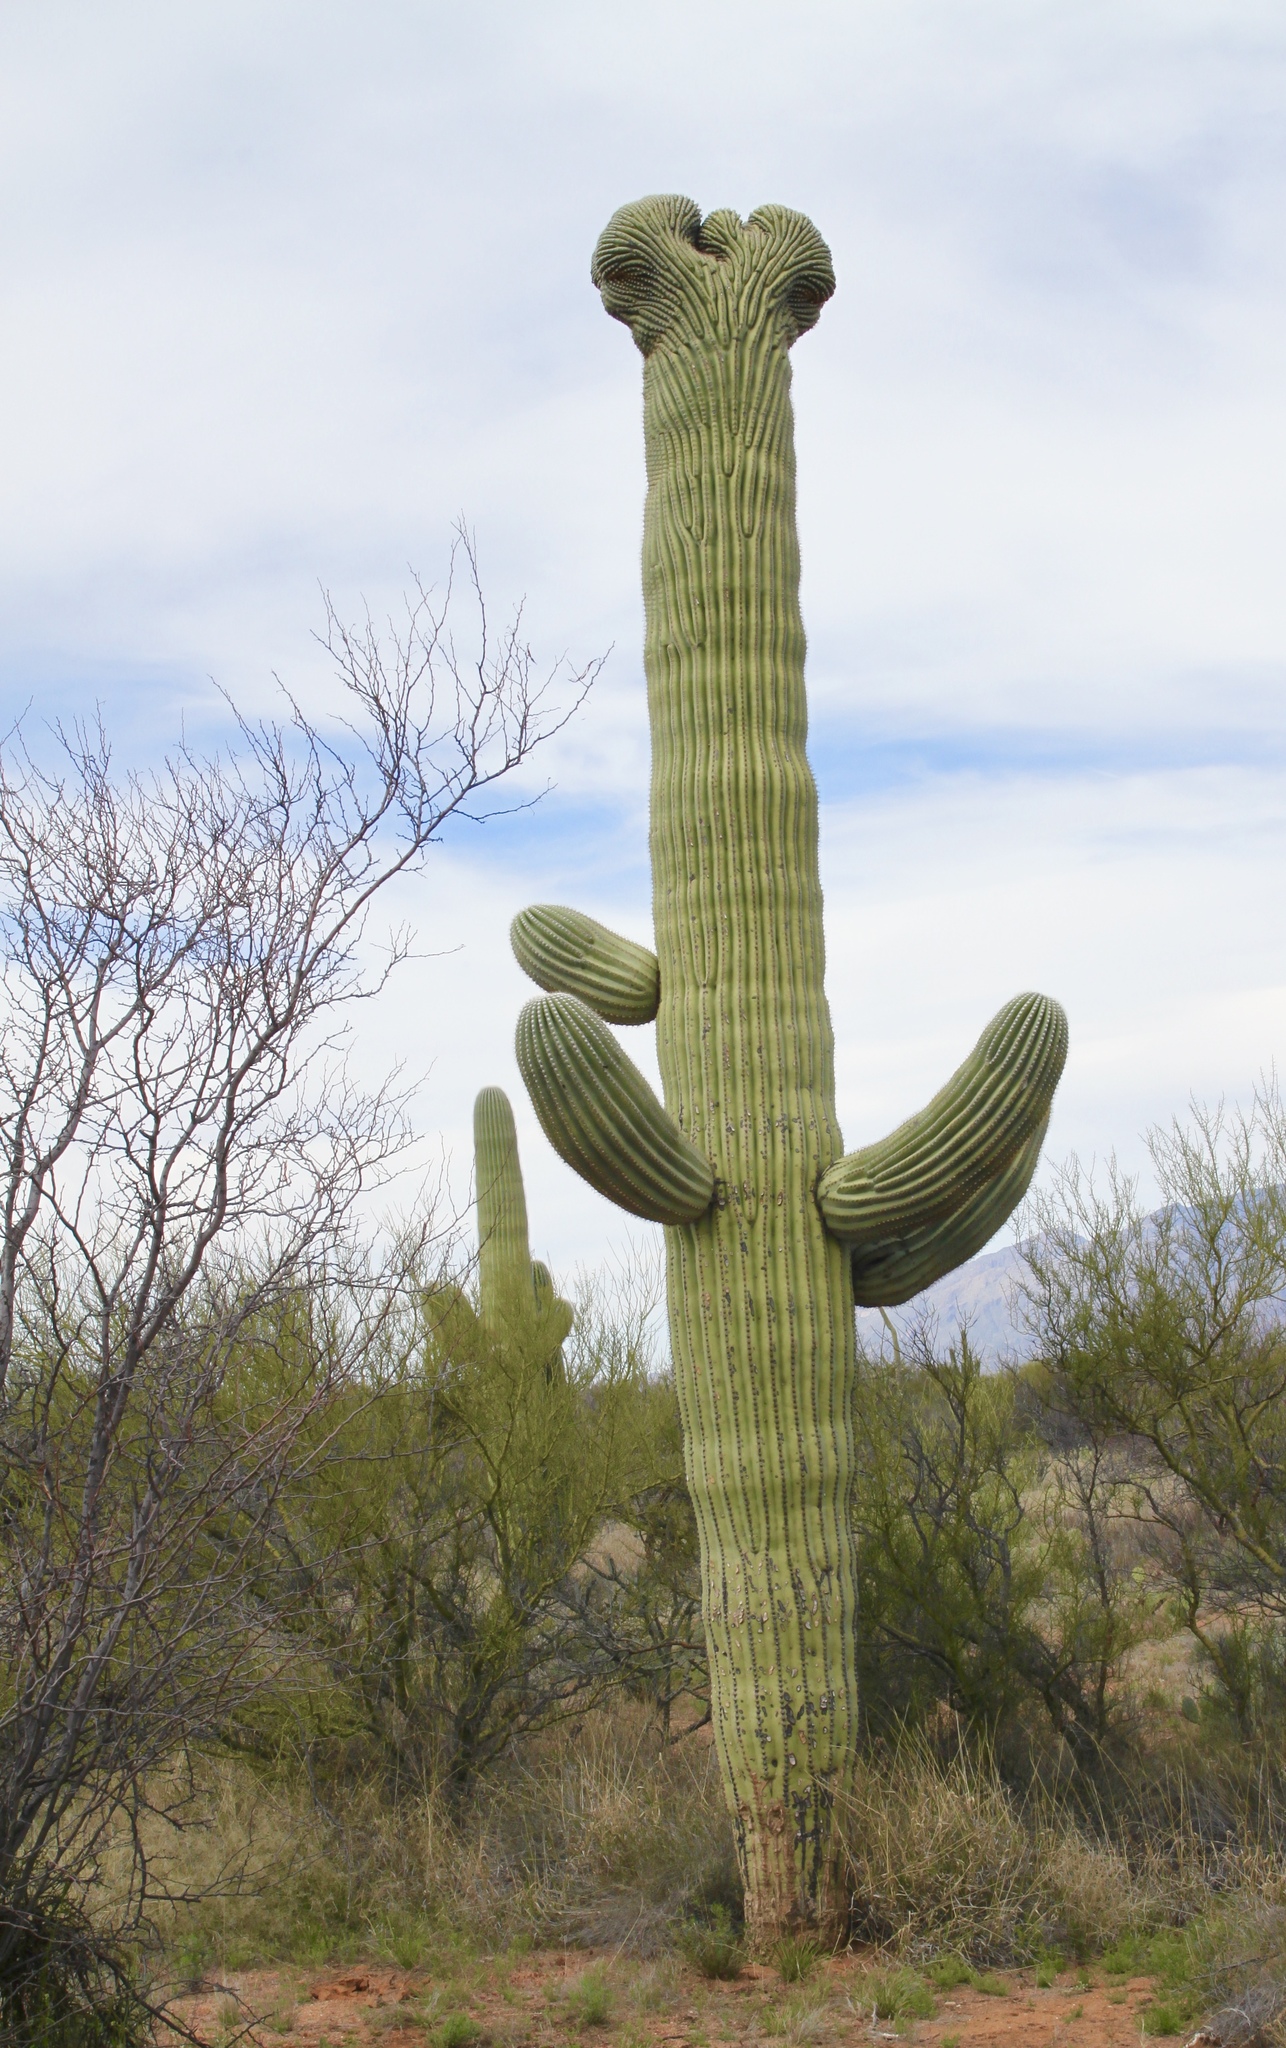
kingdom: Plantae
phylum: Tracheophyta
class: Magnoliopsida
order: Caryophyllales
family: Cactaceae
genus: Carnegiea
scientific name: Carnegiea gigantea
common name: Saguaro
